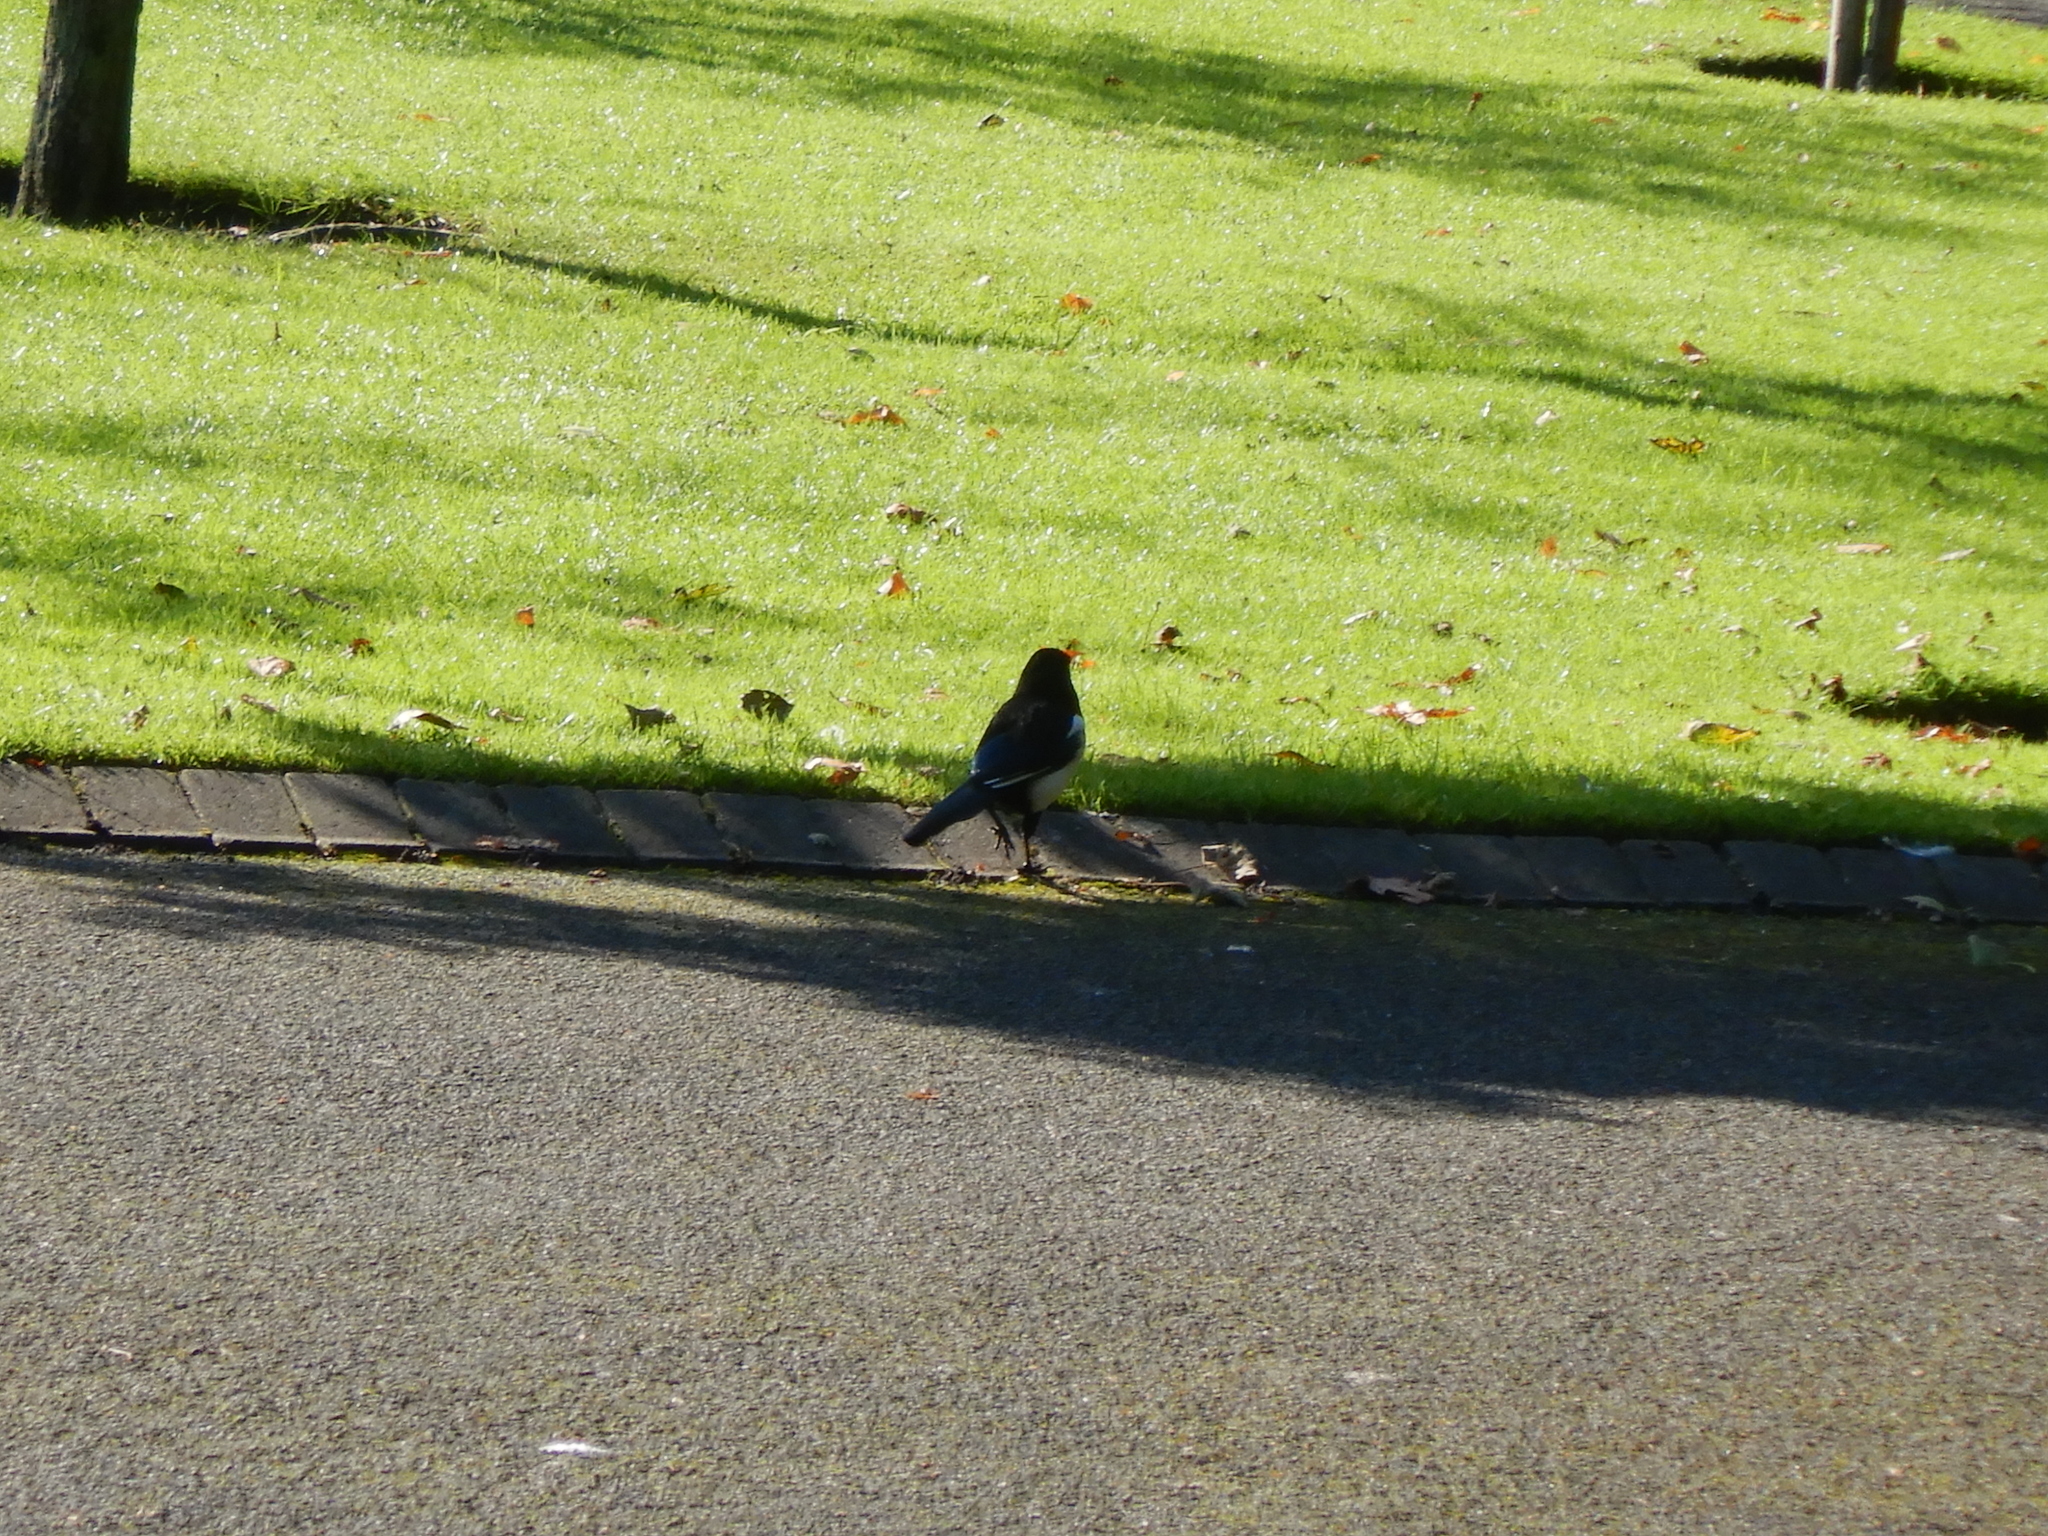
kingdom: Animalia
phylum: Chordata
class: Aves
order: Passeriformes
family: Corvidae
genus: Pica
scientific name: Pica pica
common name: Eurasian magpie
